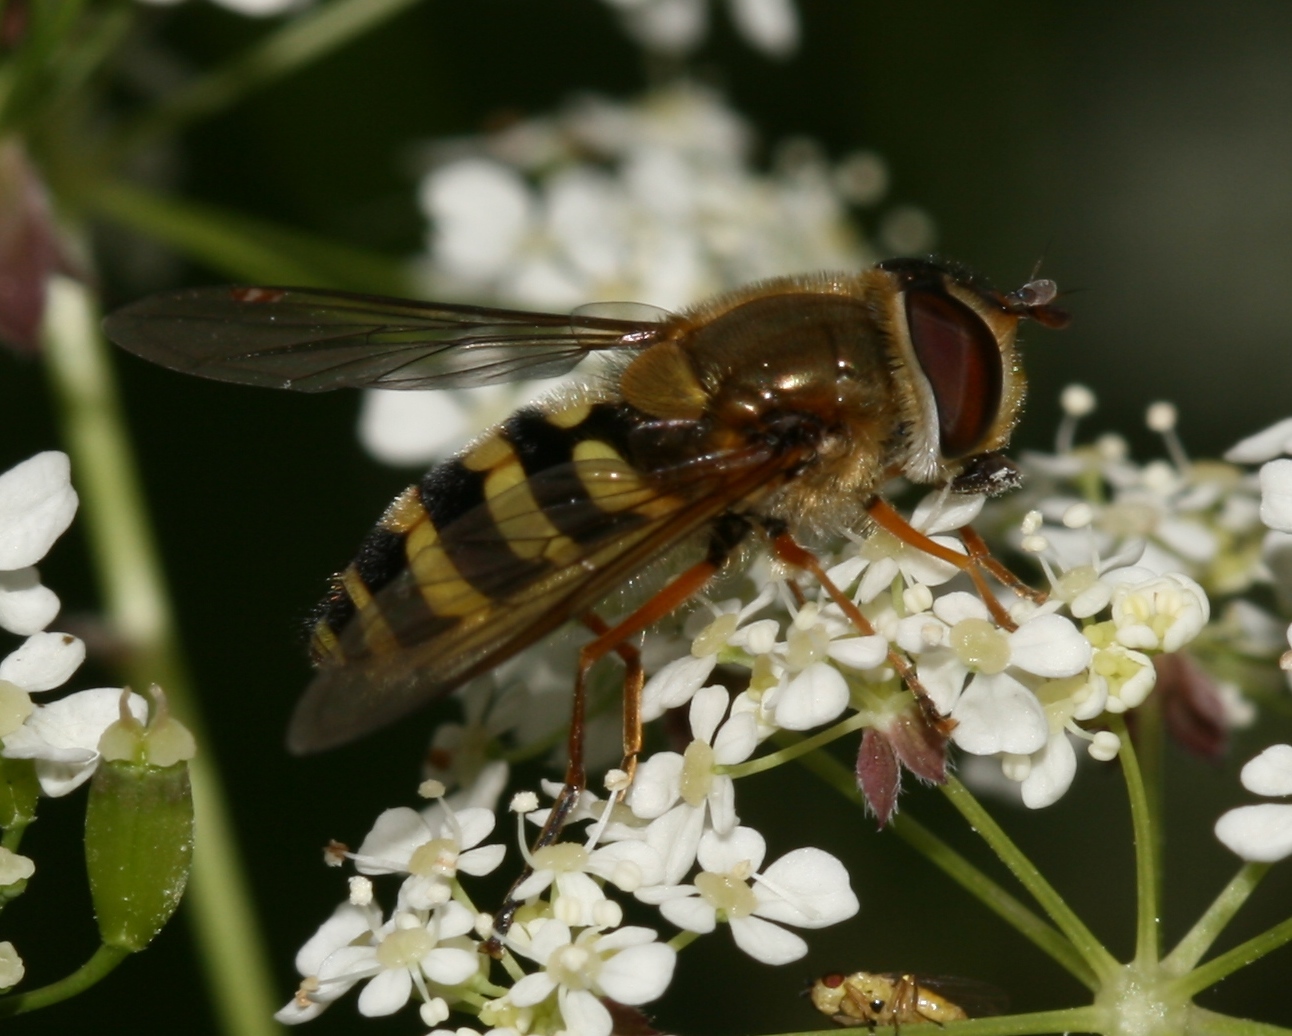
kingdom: Animalia
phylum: Arthropoda
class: Insecta
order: Diptera
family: Syrphidae
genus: Syrphus
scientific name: Syrphus ribesii
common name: Common flower fly
